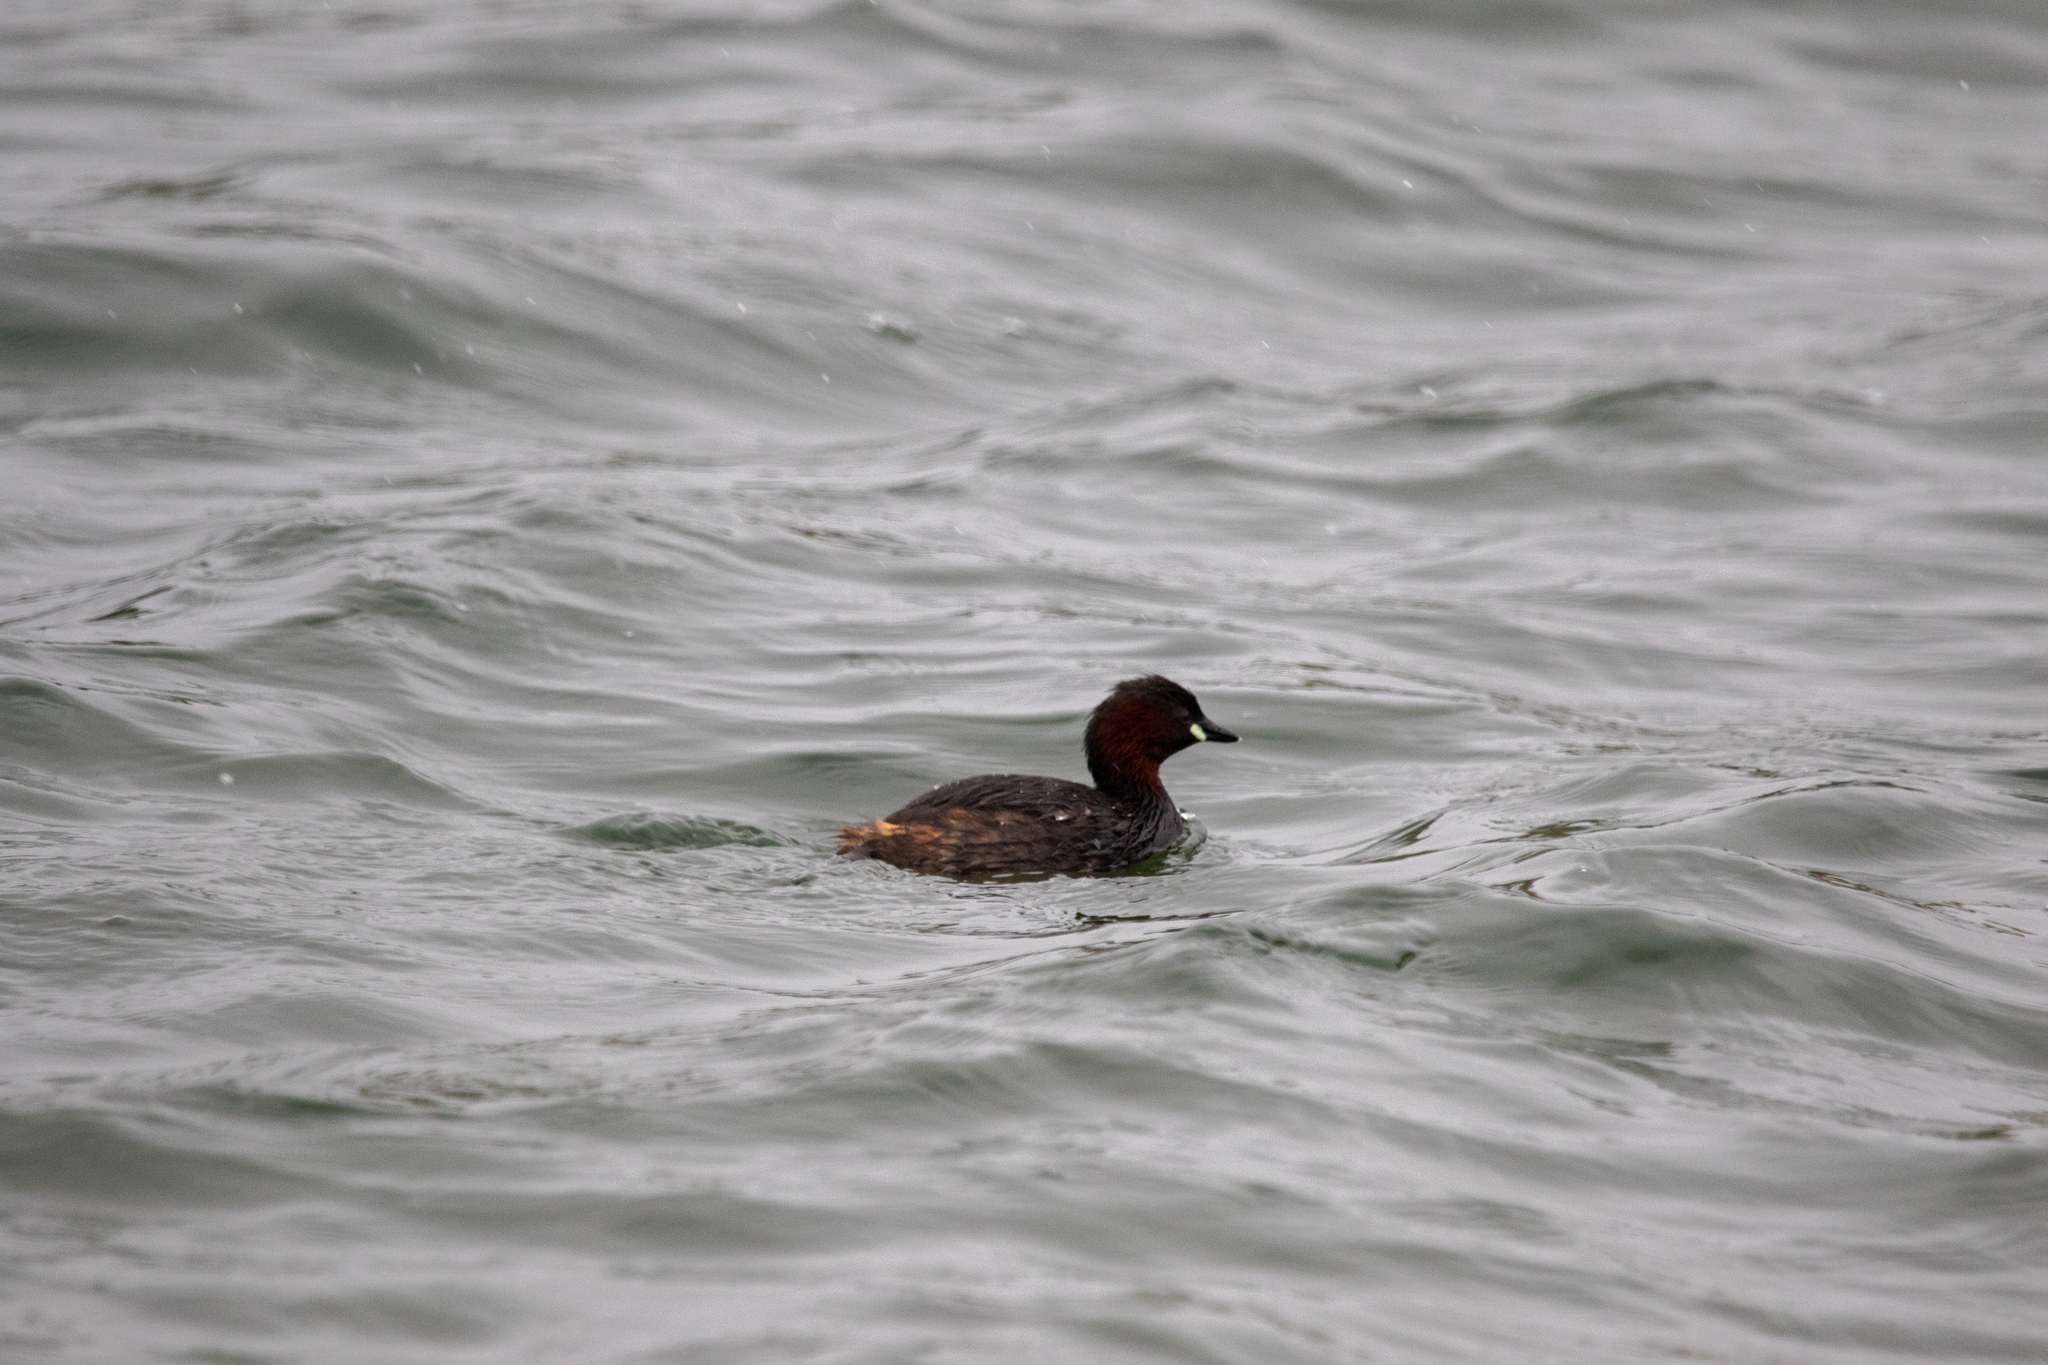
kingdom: Animalia
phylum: Chordata
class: Aves
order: Podicipediformes
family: Podicipedidae
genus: Tachybaptus
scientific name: Tachybaptus ruficollis
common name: Little grebe
